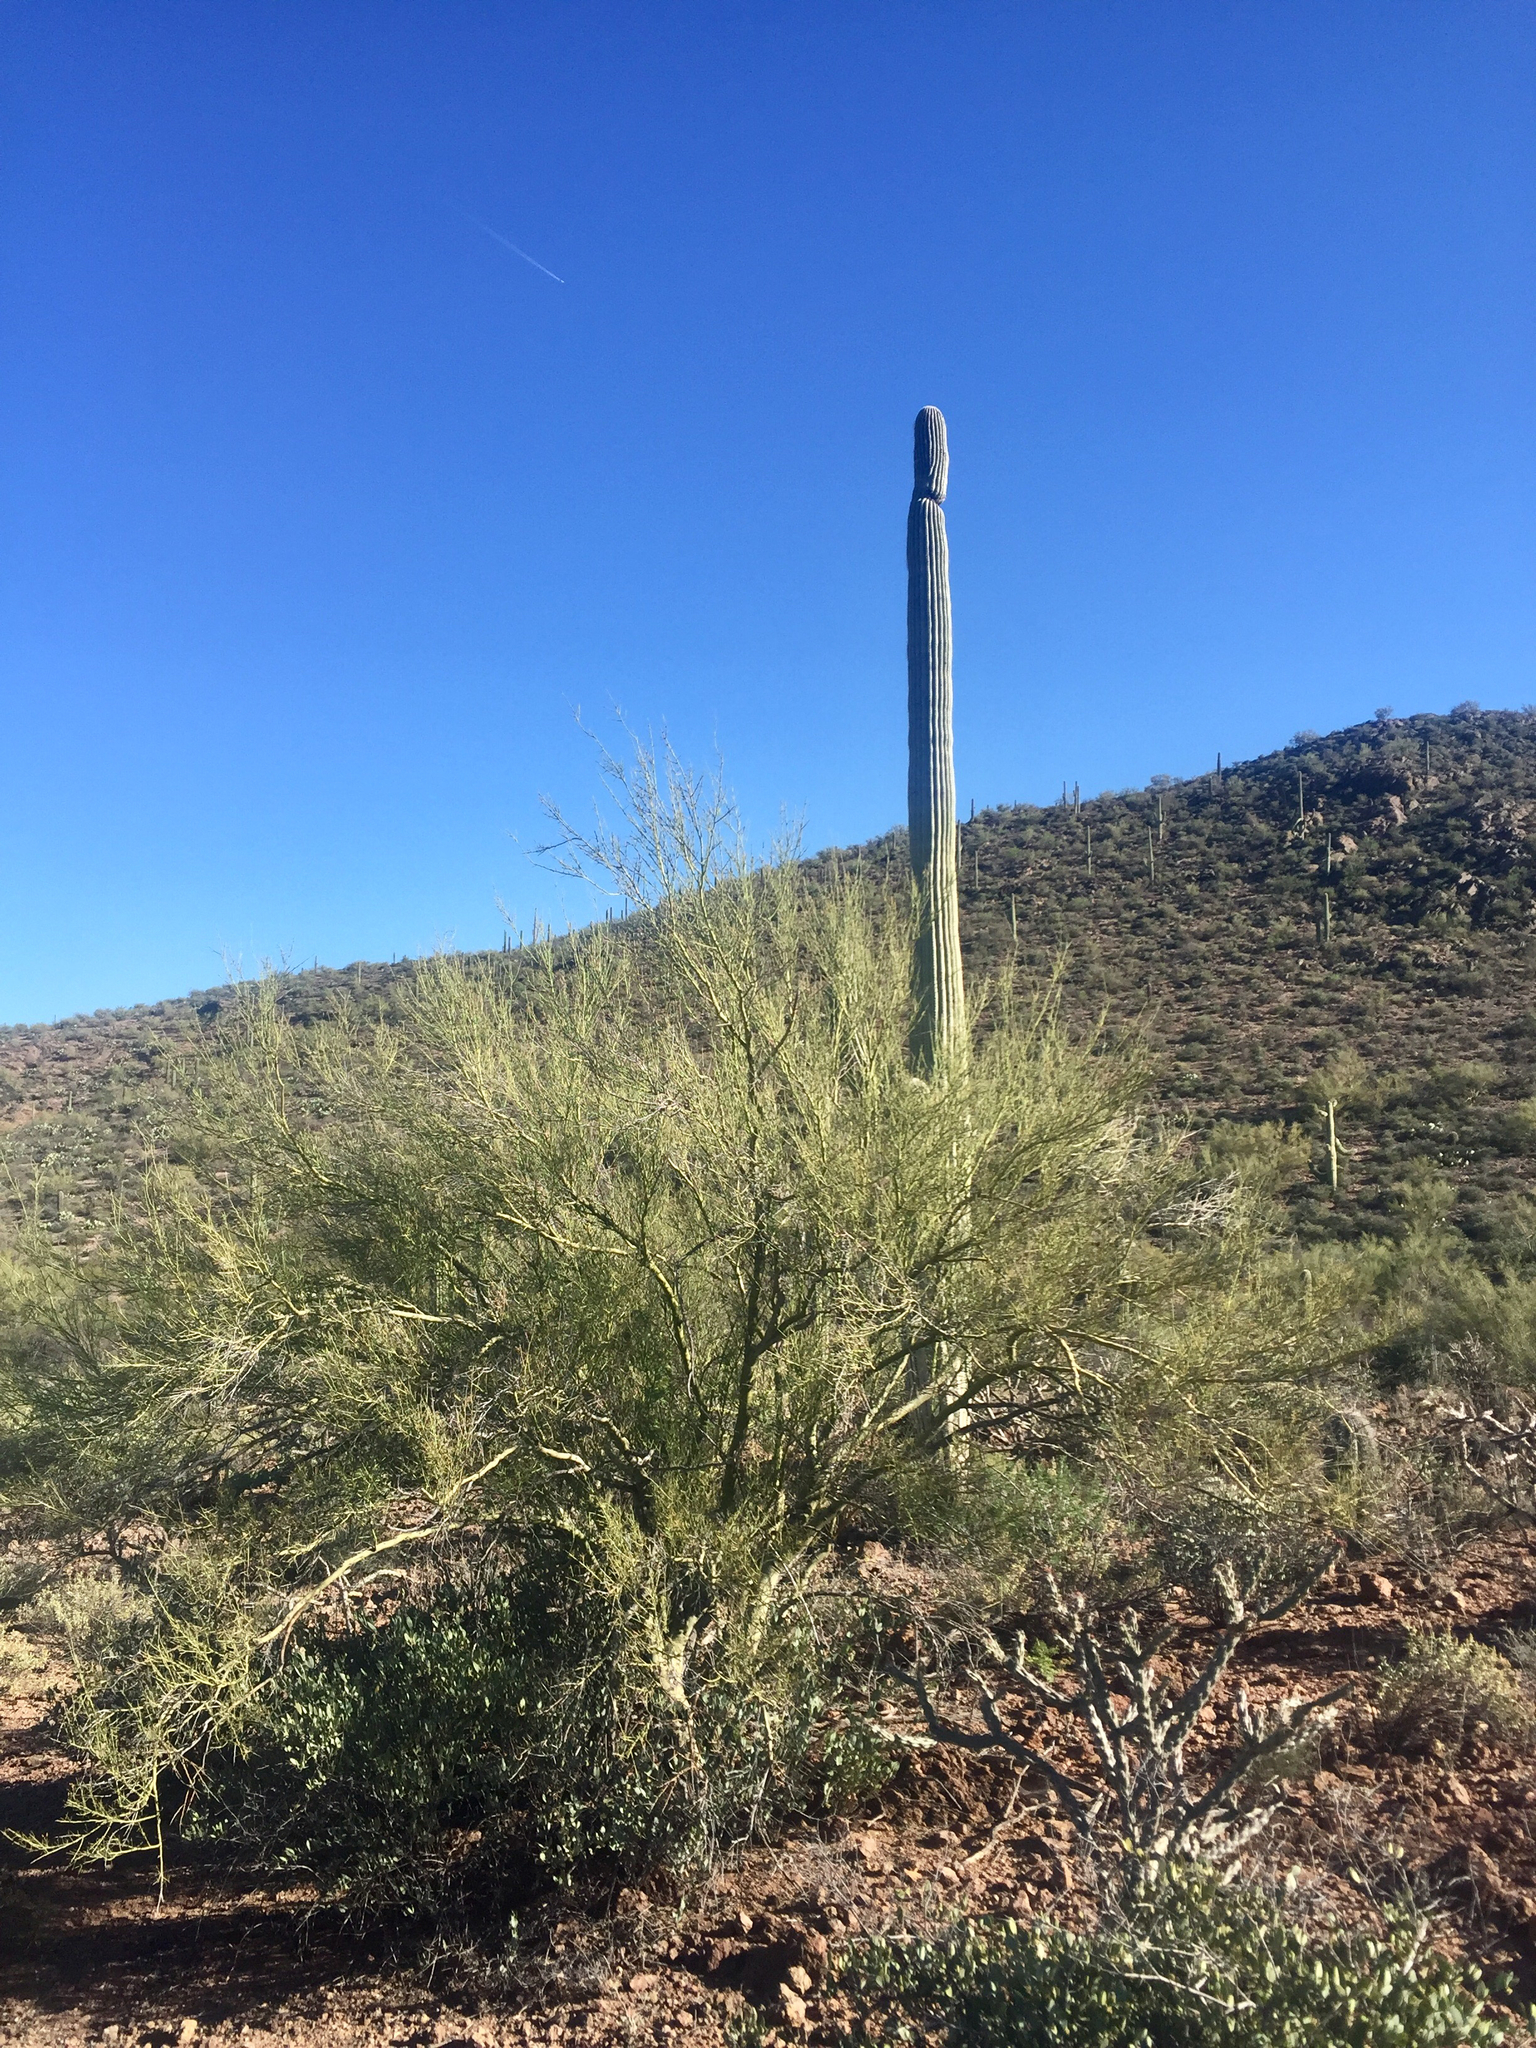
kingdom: Plantae
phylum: Tracheophyta
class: Magnoliopsida
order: Fabales
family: Fabaceae
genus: Parkinsonia
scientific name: Parkinsonia microphylla
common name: Yellow paloverde
